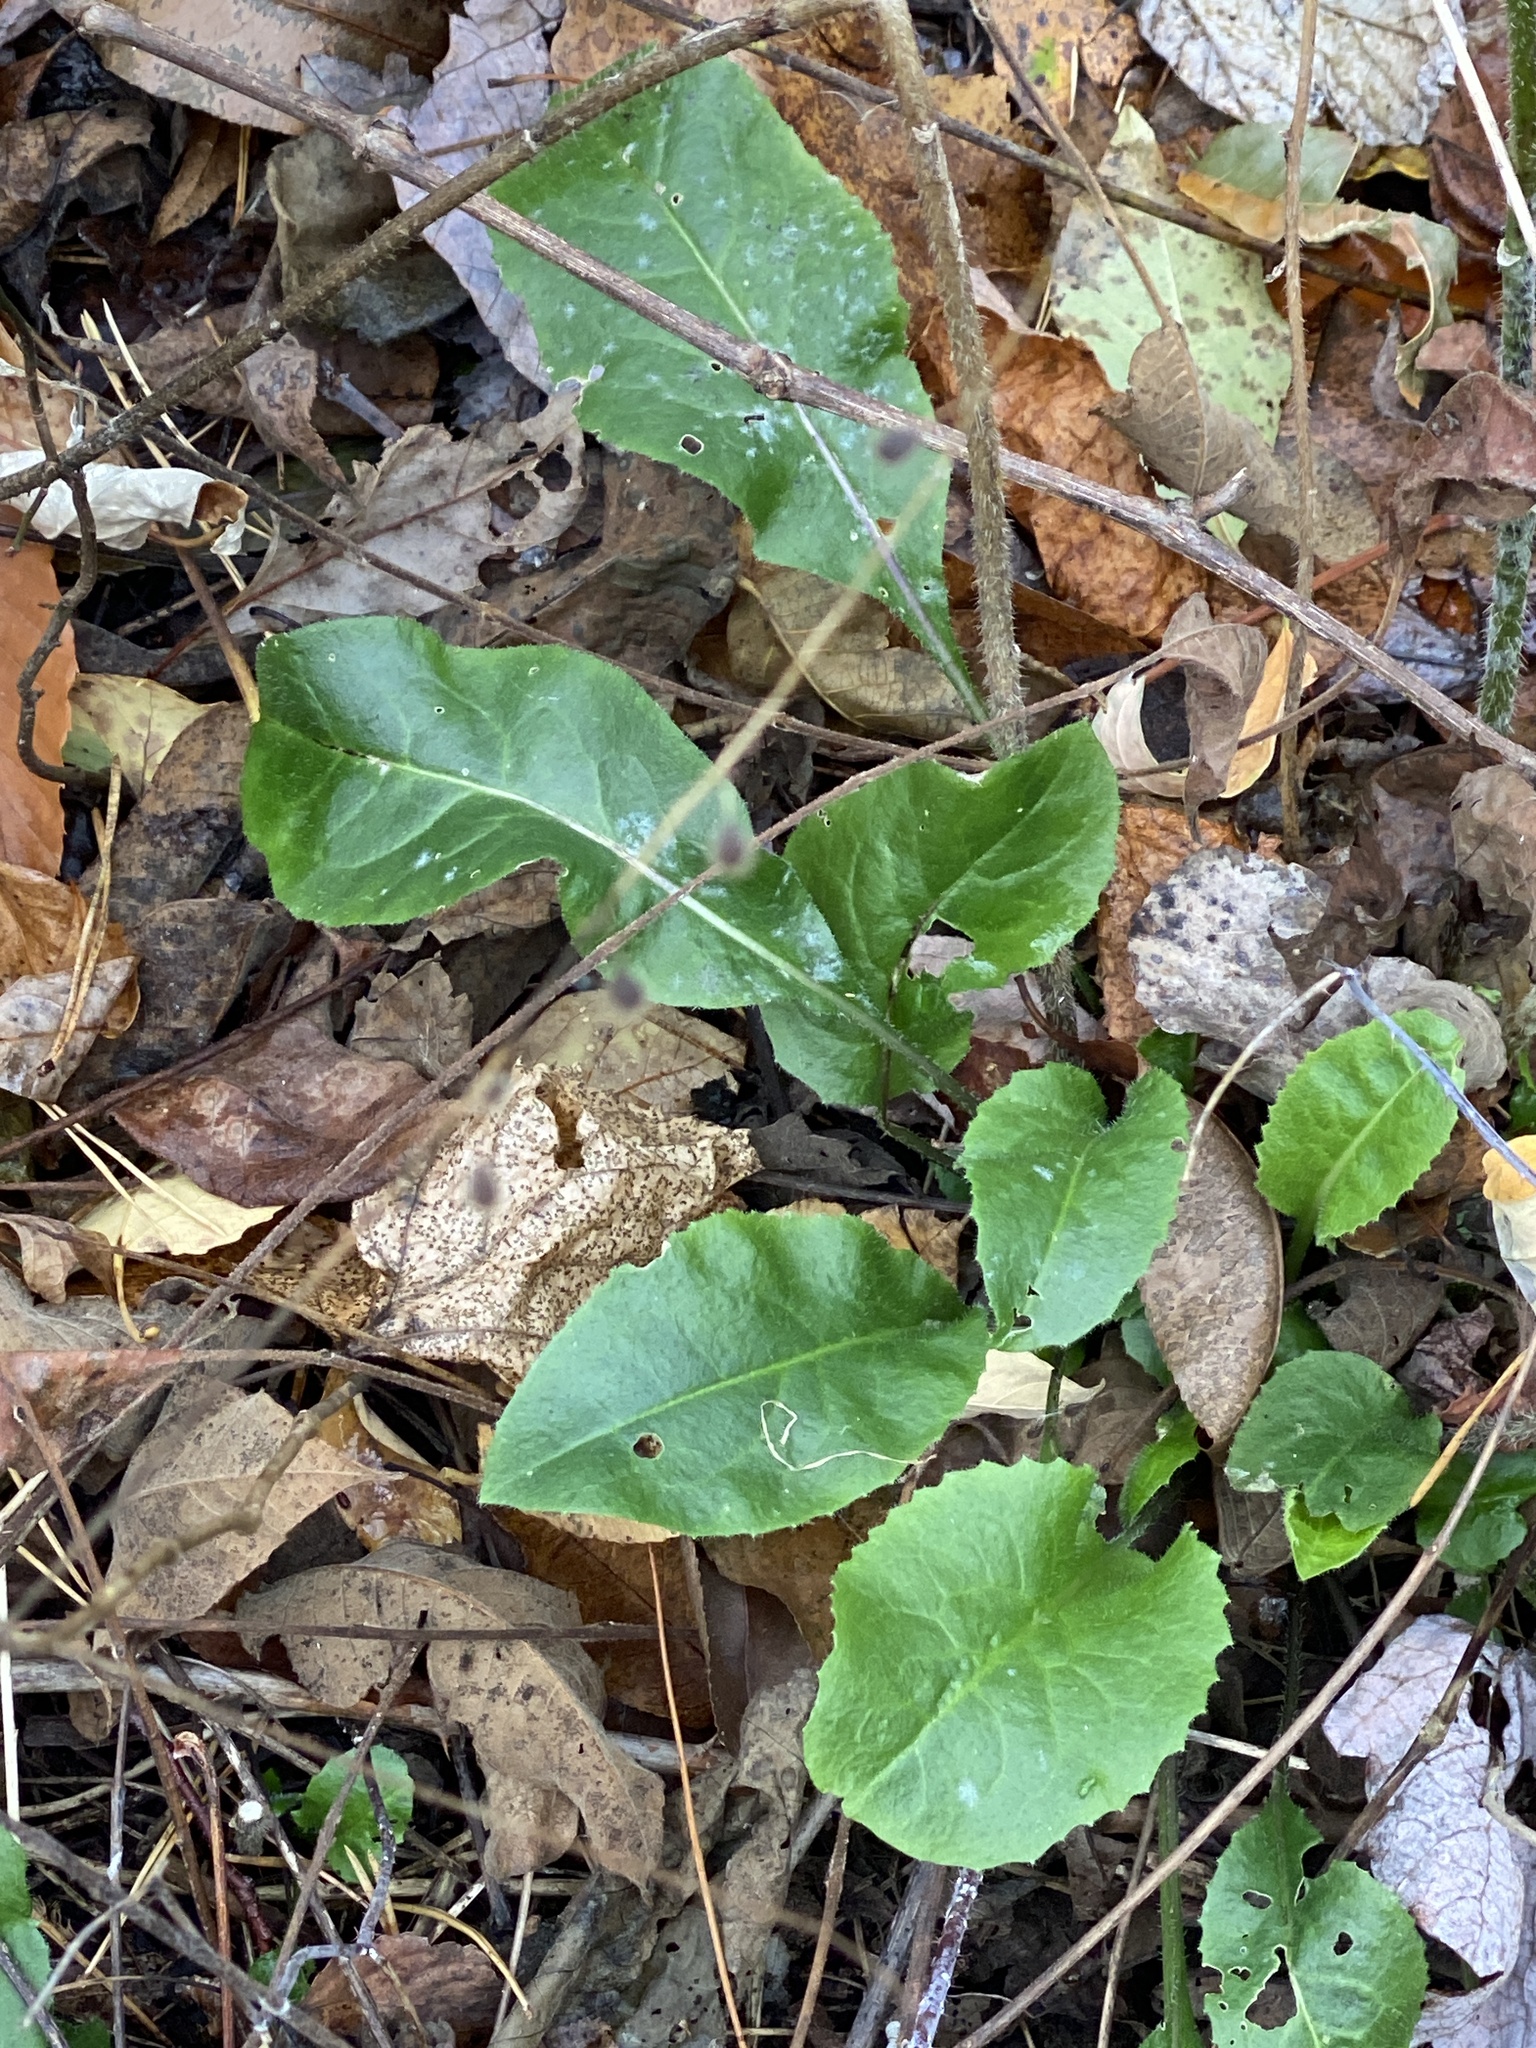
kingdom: Plantae
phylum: Tracheophyta
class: Magnoliopsida
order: Brassicales
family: Brassicaceae
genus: Hesperis
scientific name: Hesperis matronalis
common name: Dame's-violet
